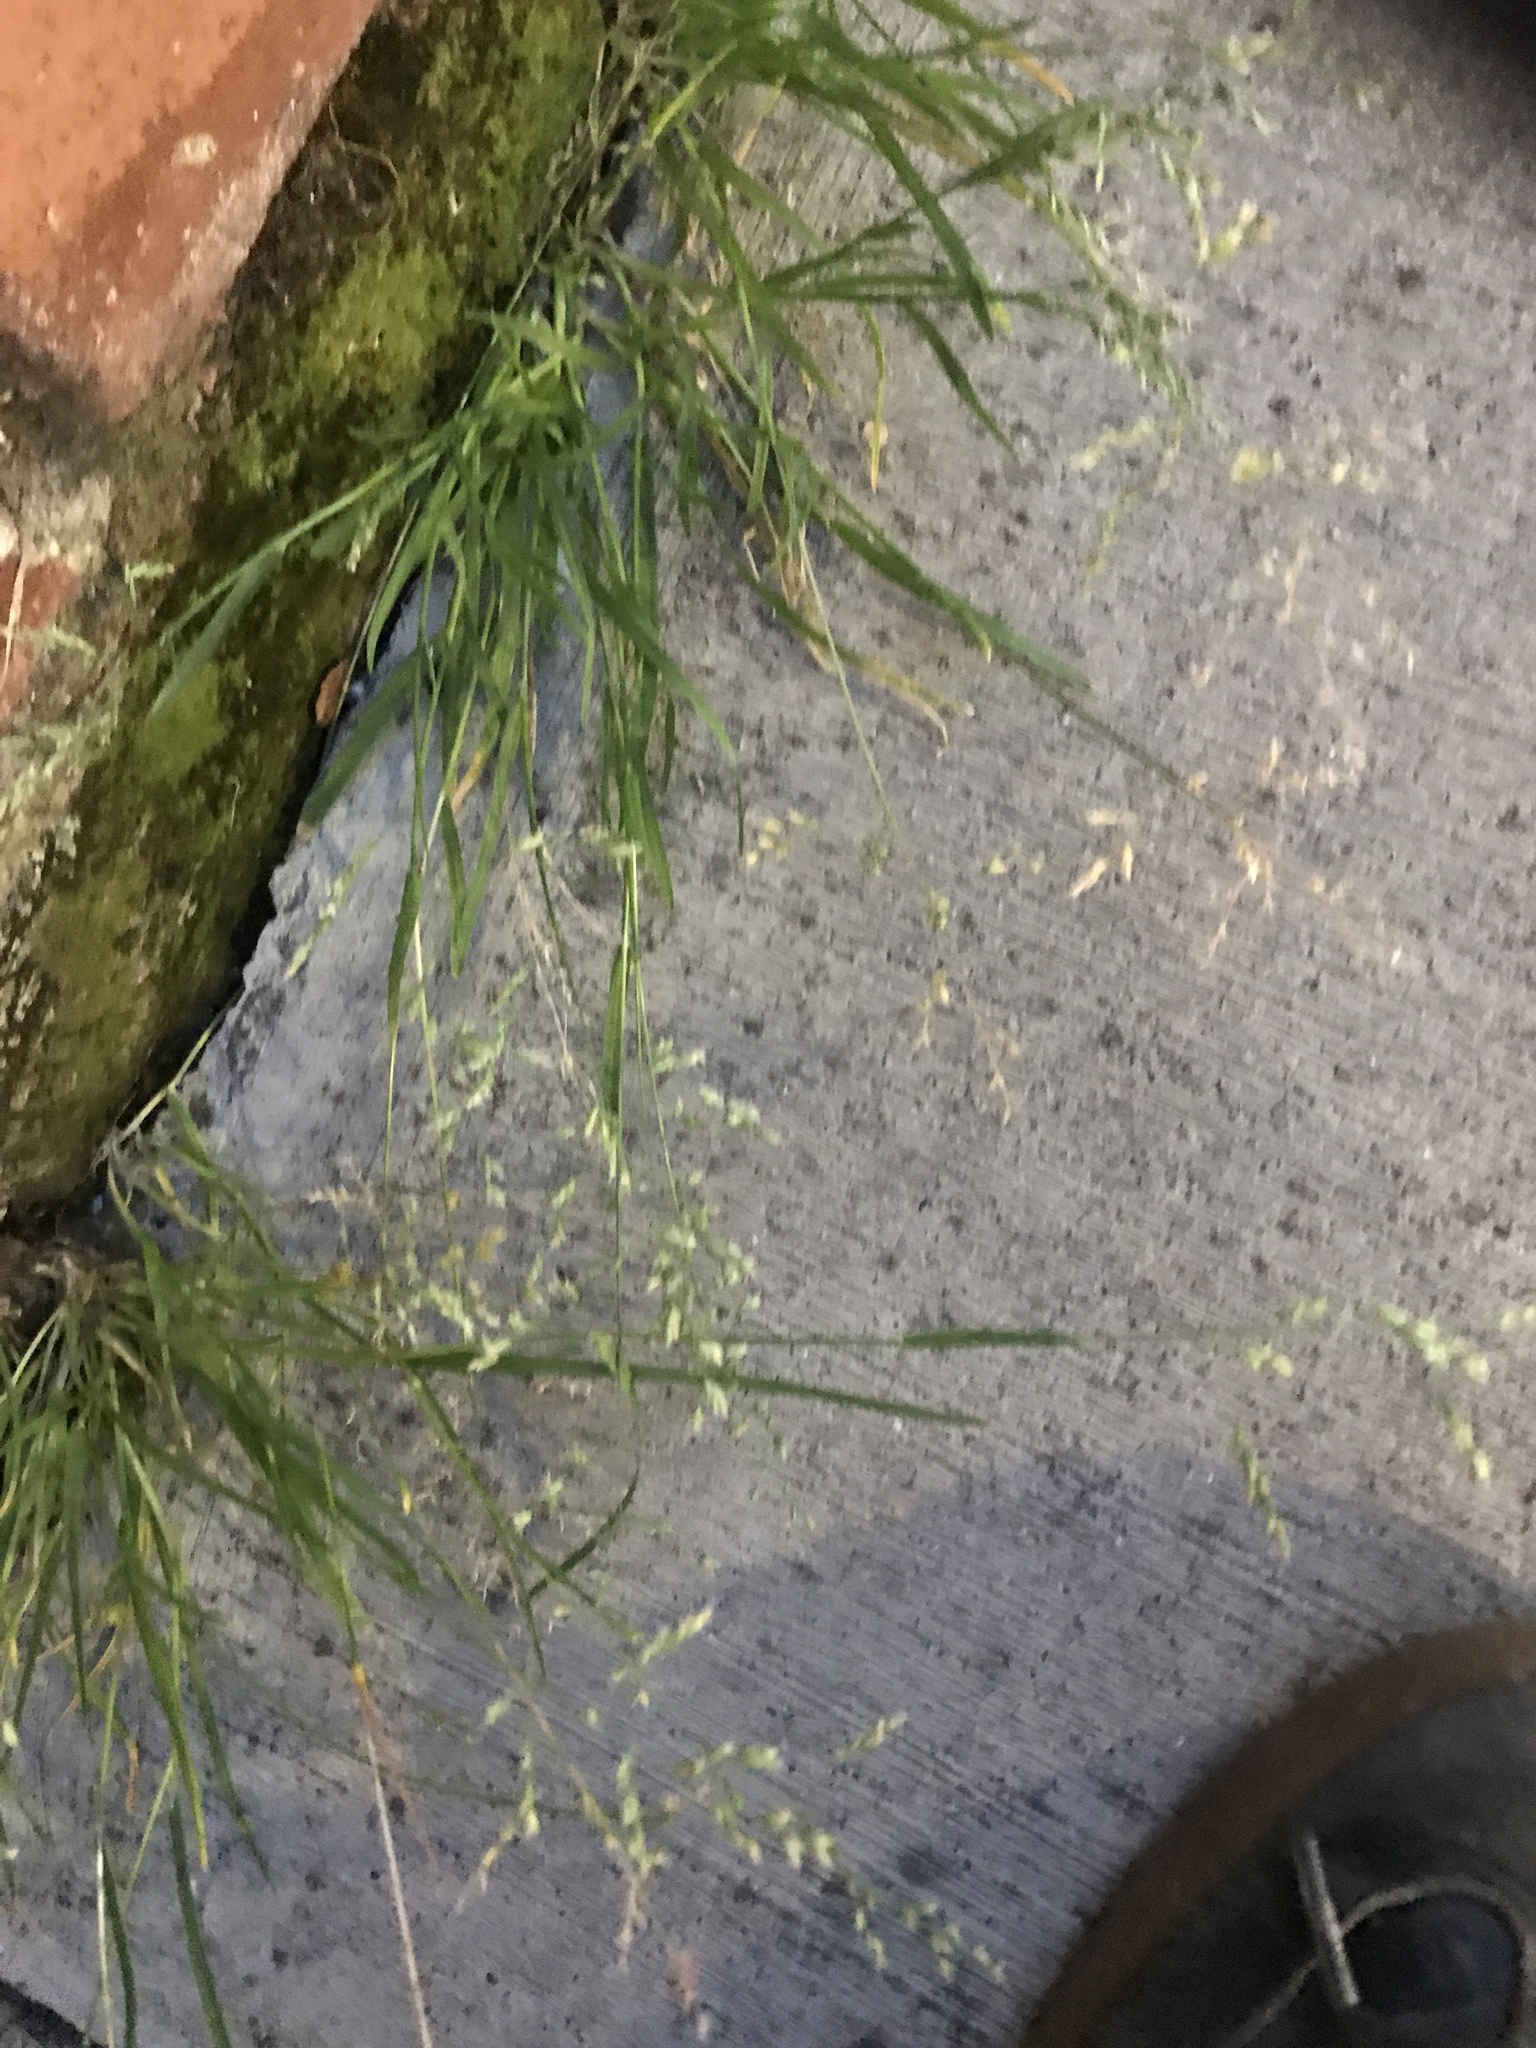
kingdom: Plantae
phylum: Tracheophyta
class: Liliopsida
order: Poales
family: Poaceae
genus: Poa
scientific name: Poa annua
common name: Annual bluegrass
